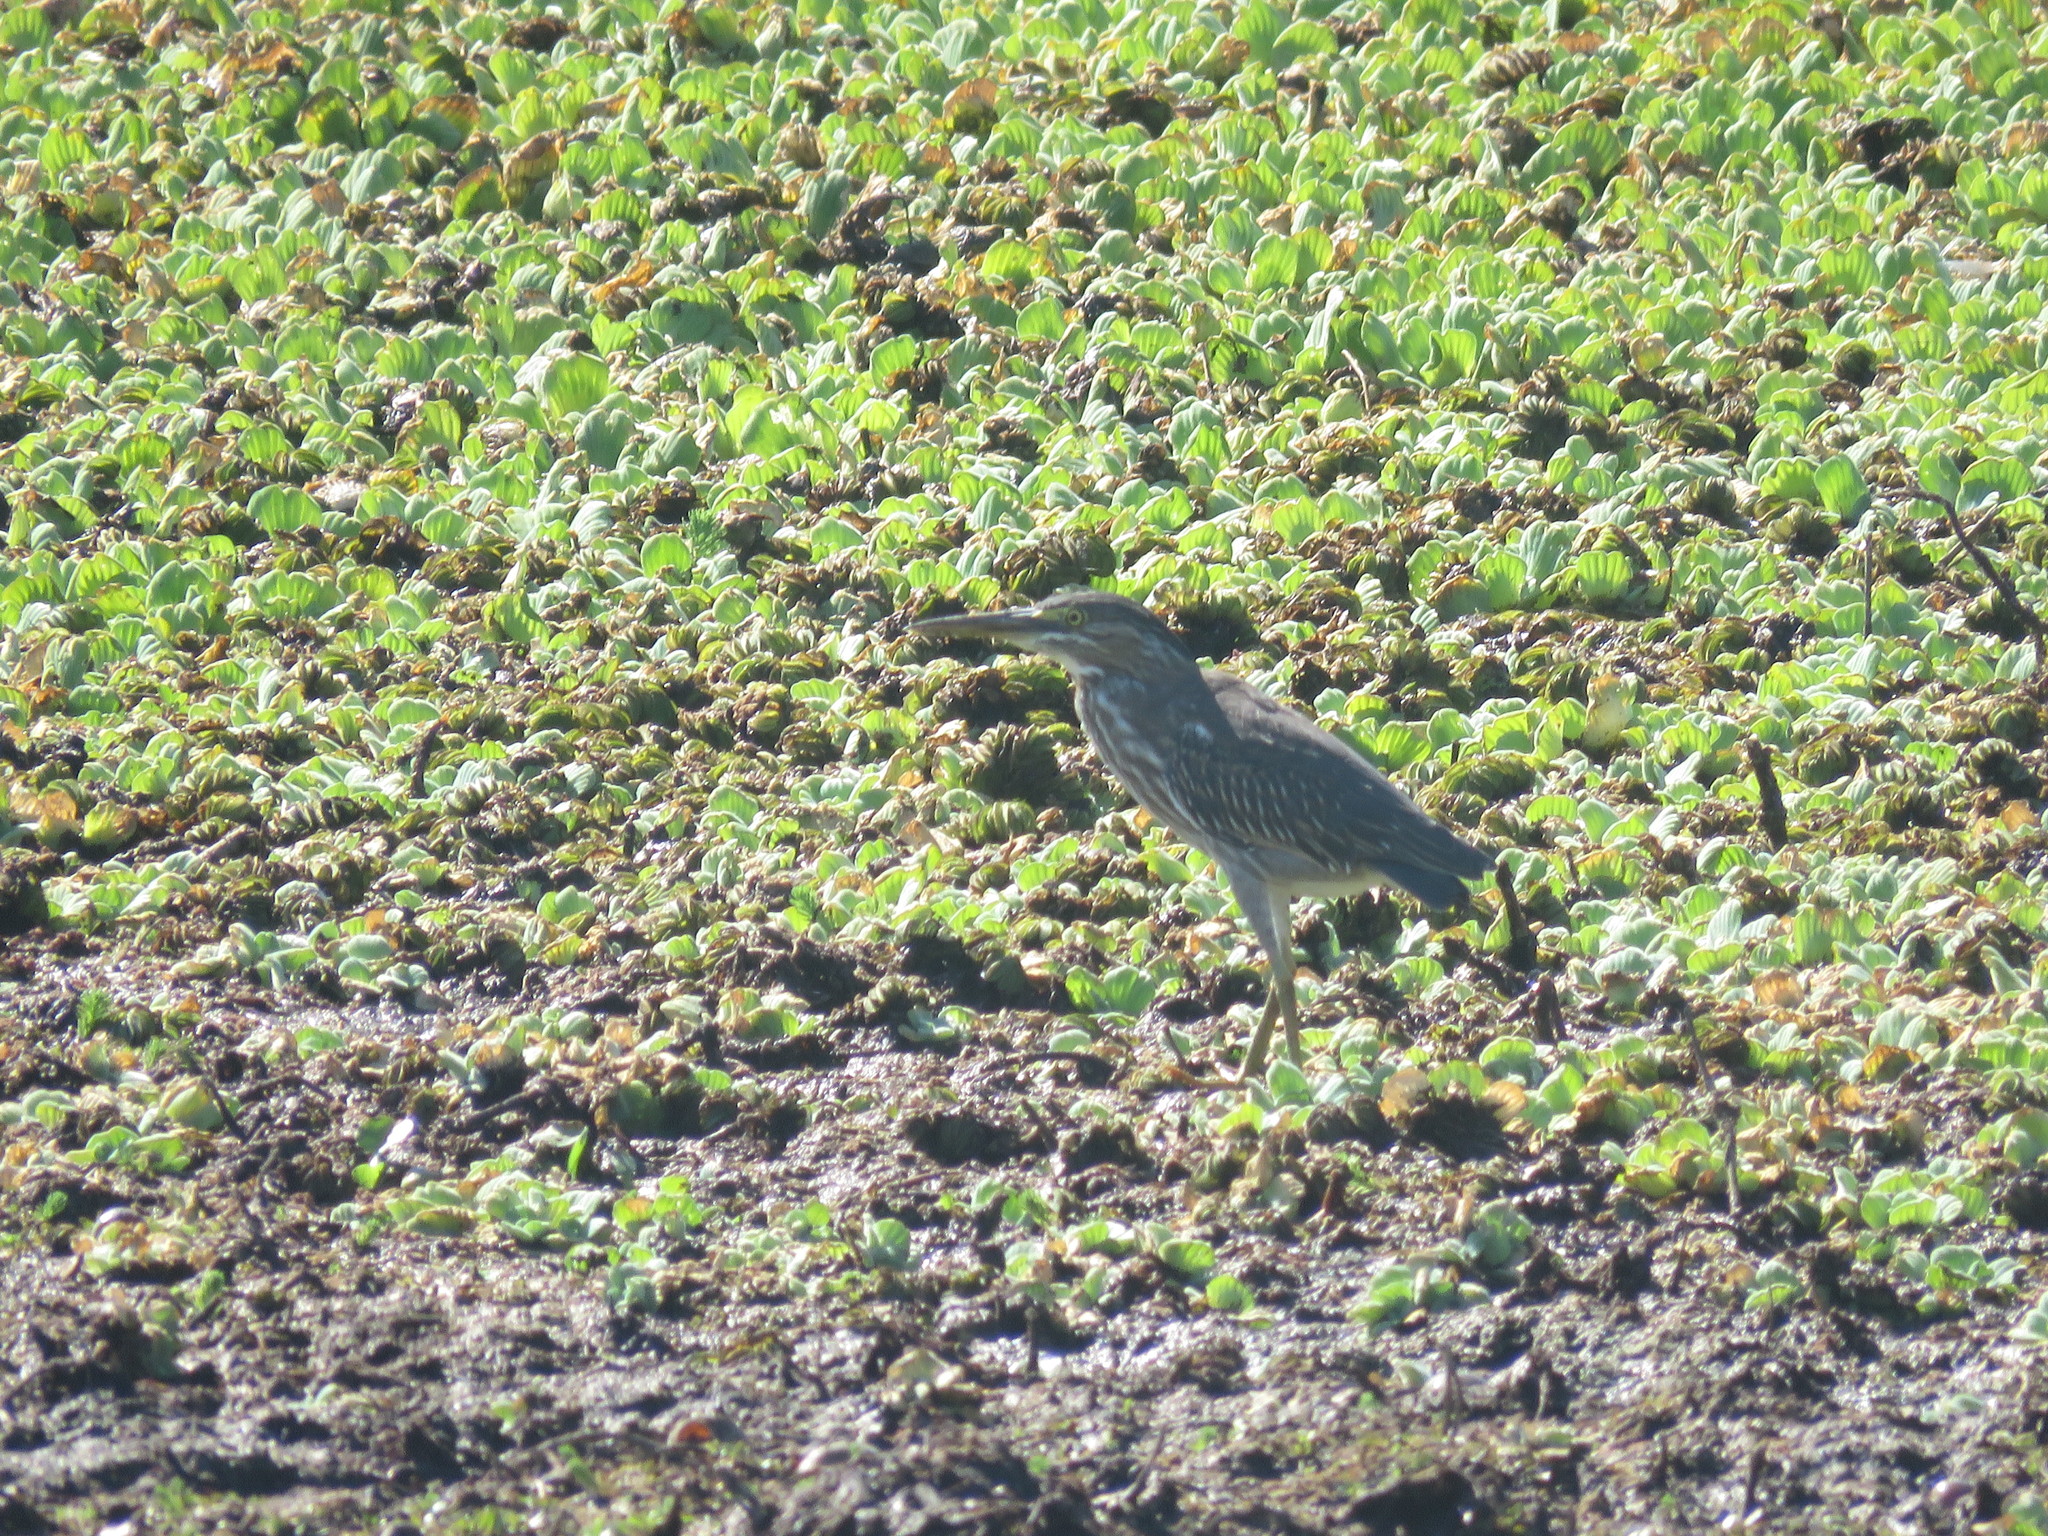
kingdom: Animalia
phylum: Chordata
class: Aves
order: Pelecaniformes
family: Ardeidae
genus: Butorides
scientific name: Butorides striata
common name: Striated heron
